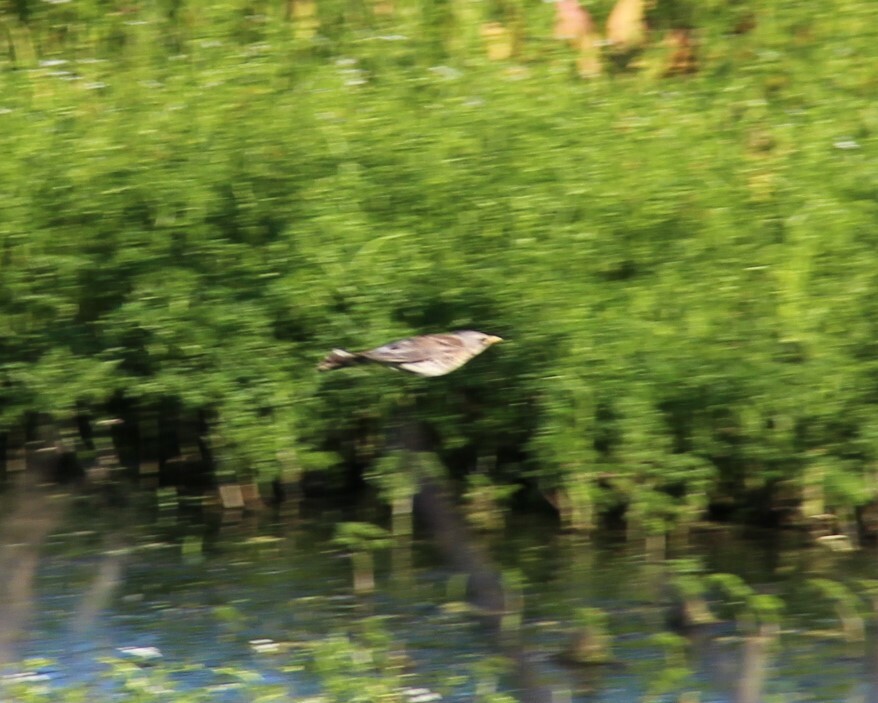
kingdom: Animalia
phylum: Chordata
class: Aves
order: Passeriformes
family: Turdidae
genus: Turdus
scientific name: Turdus pilaris
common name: Fieldfare
